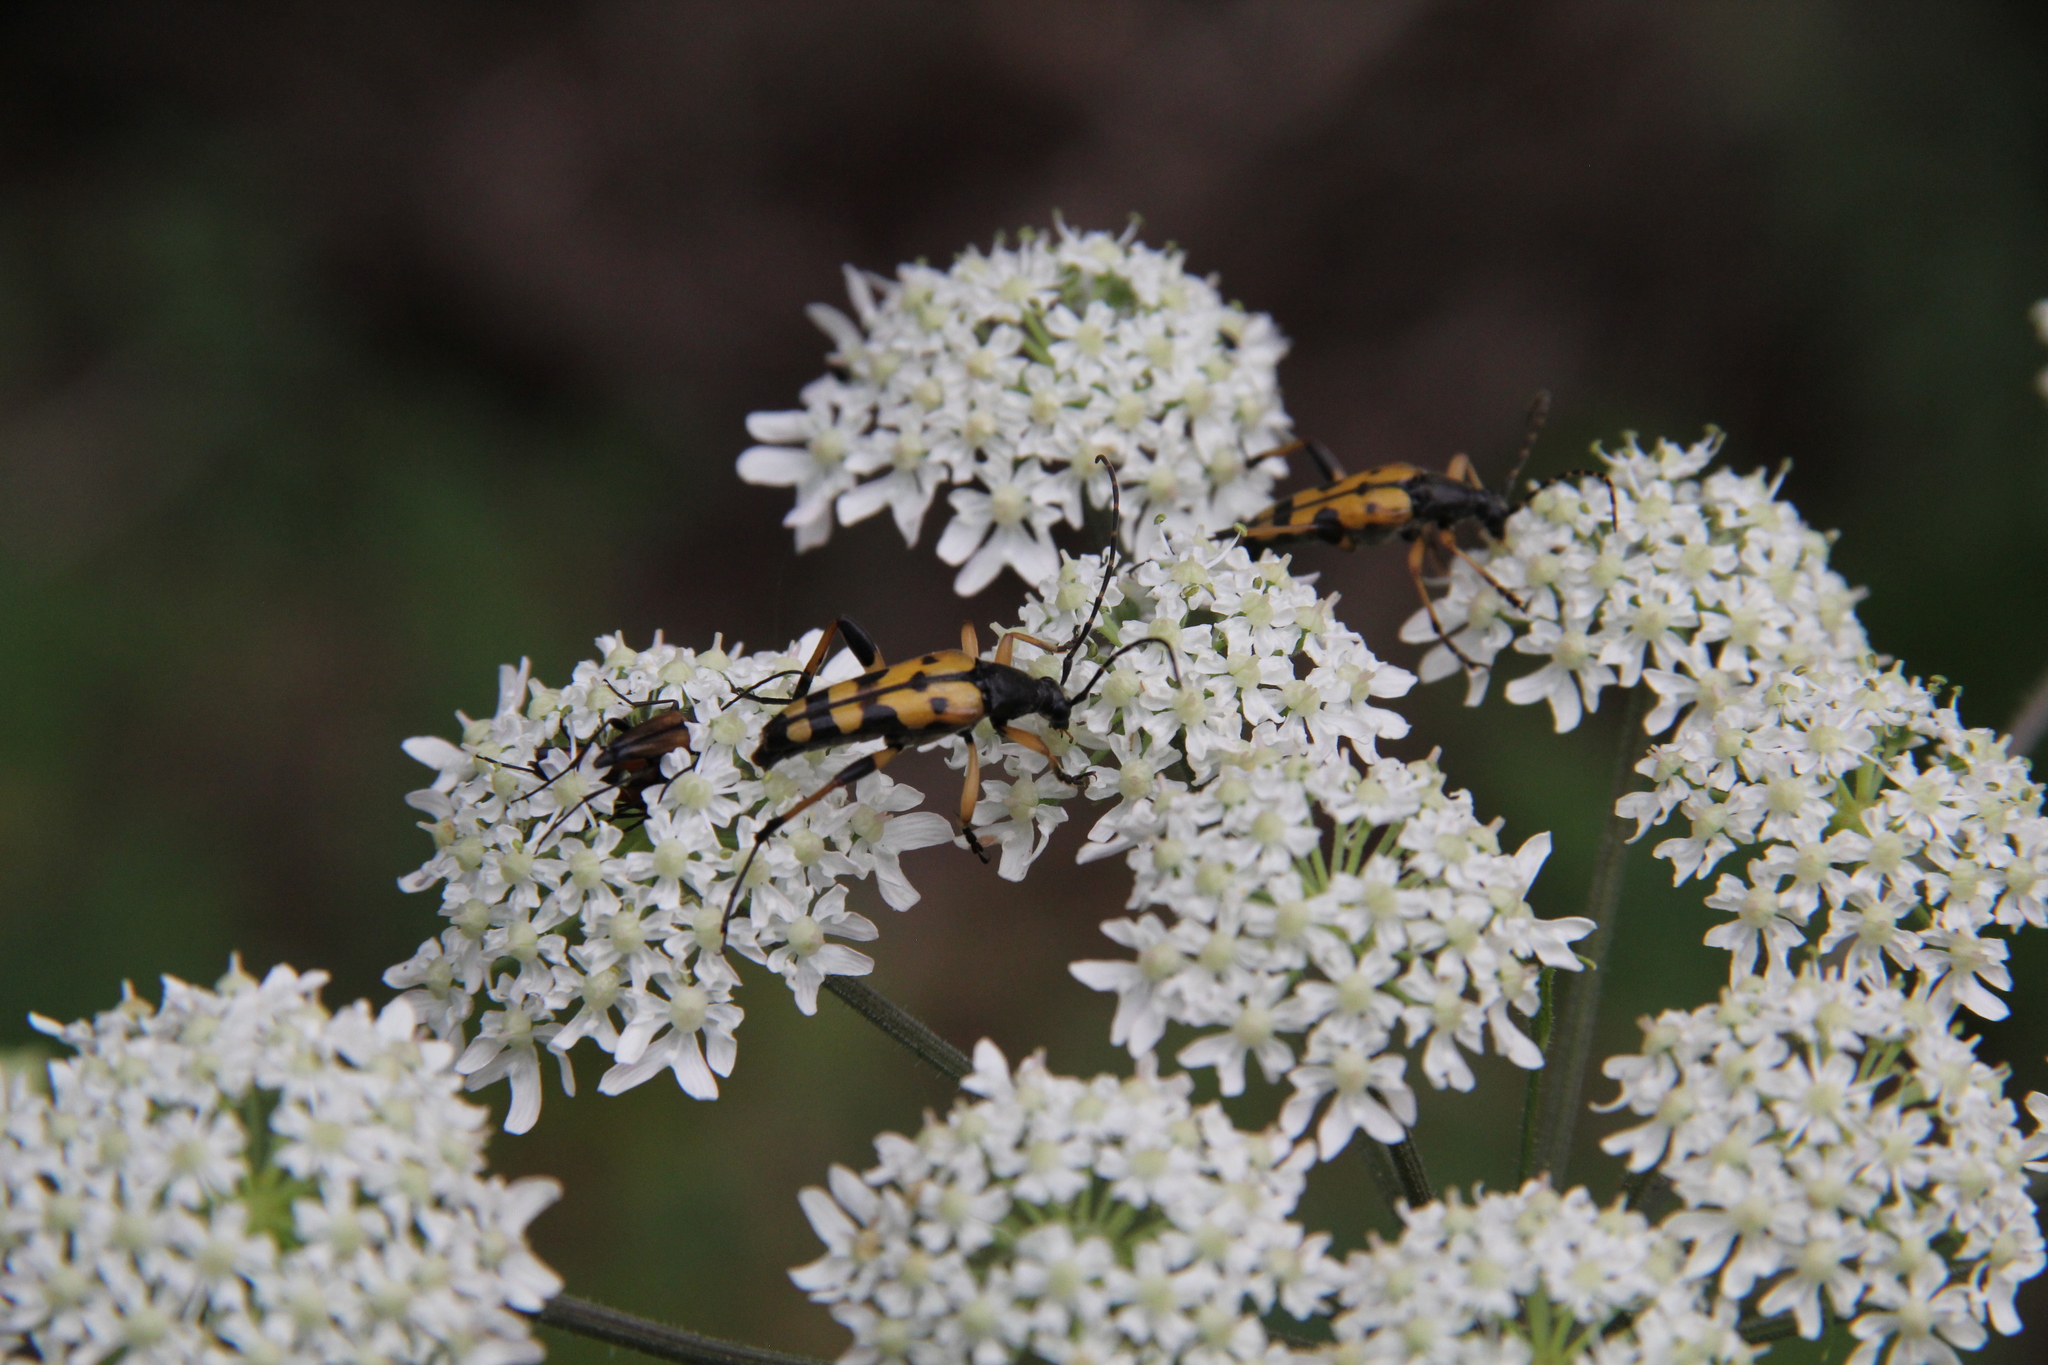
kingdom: Animalia
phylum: Arthropoda
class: Insecta
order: Coleoptera
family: Cerambycidae
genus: Rutpela
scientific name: Rutpela maculata
